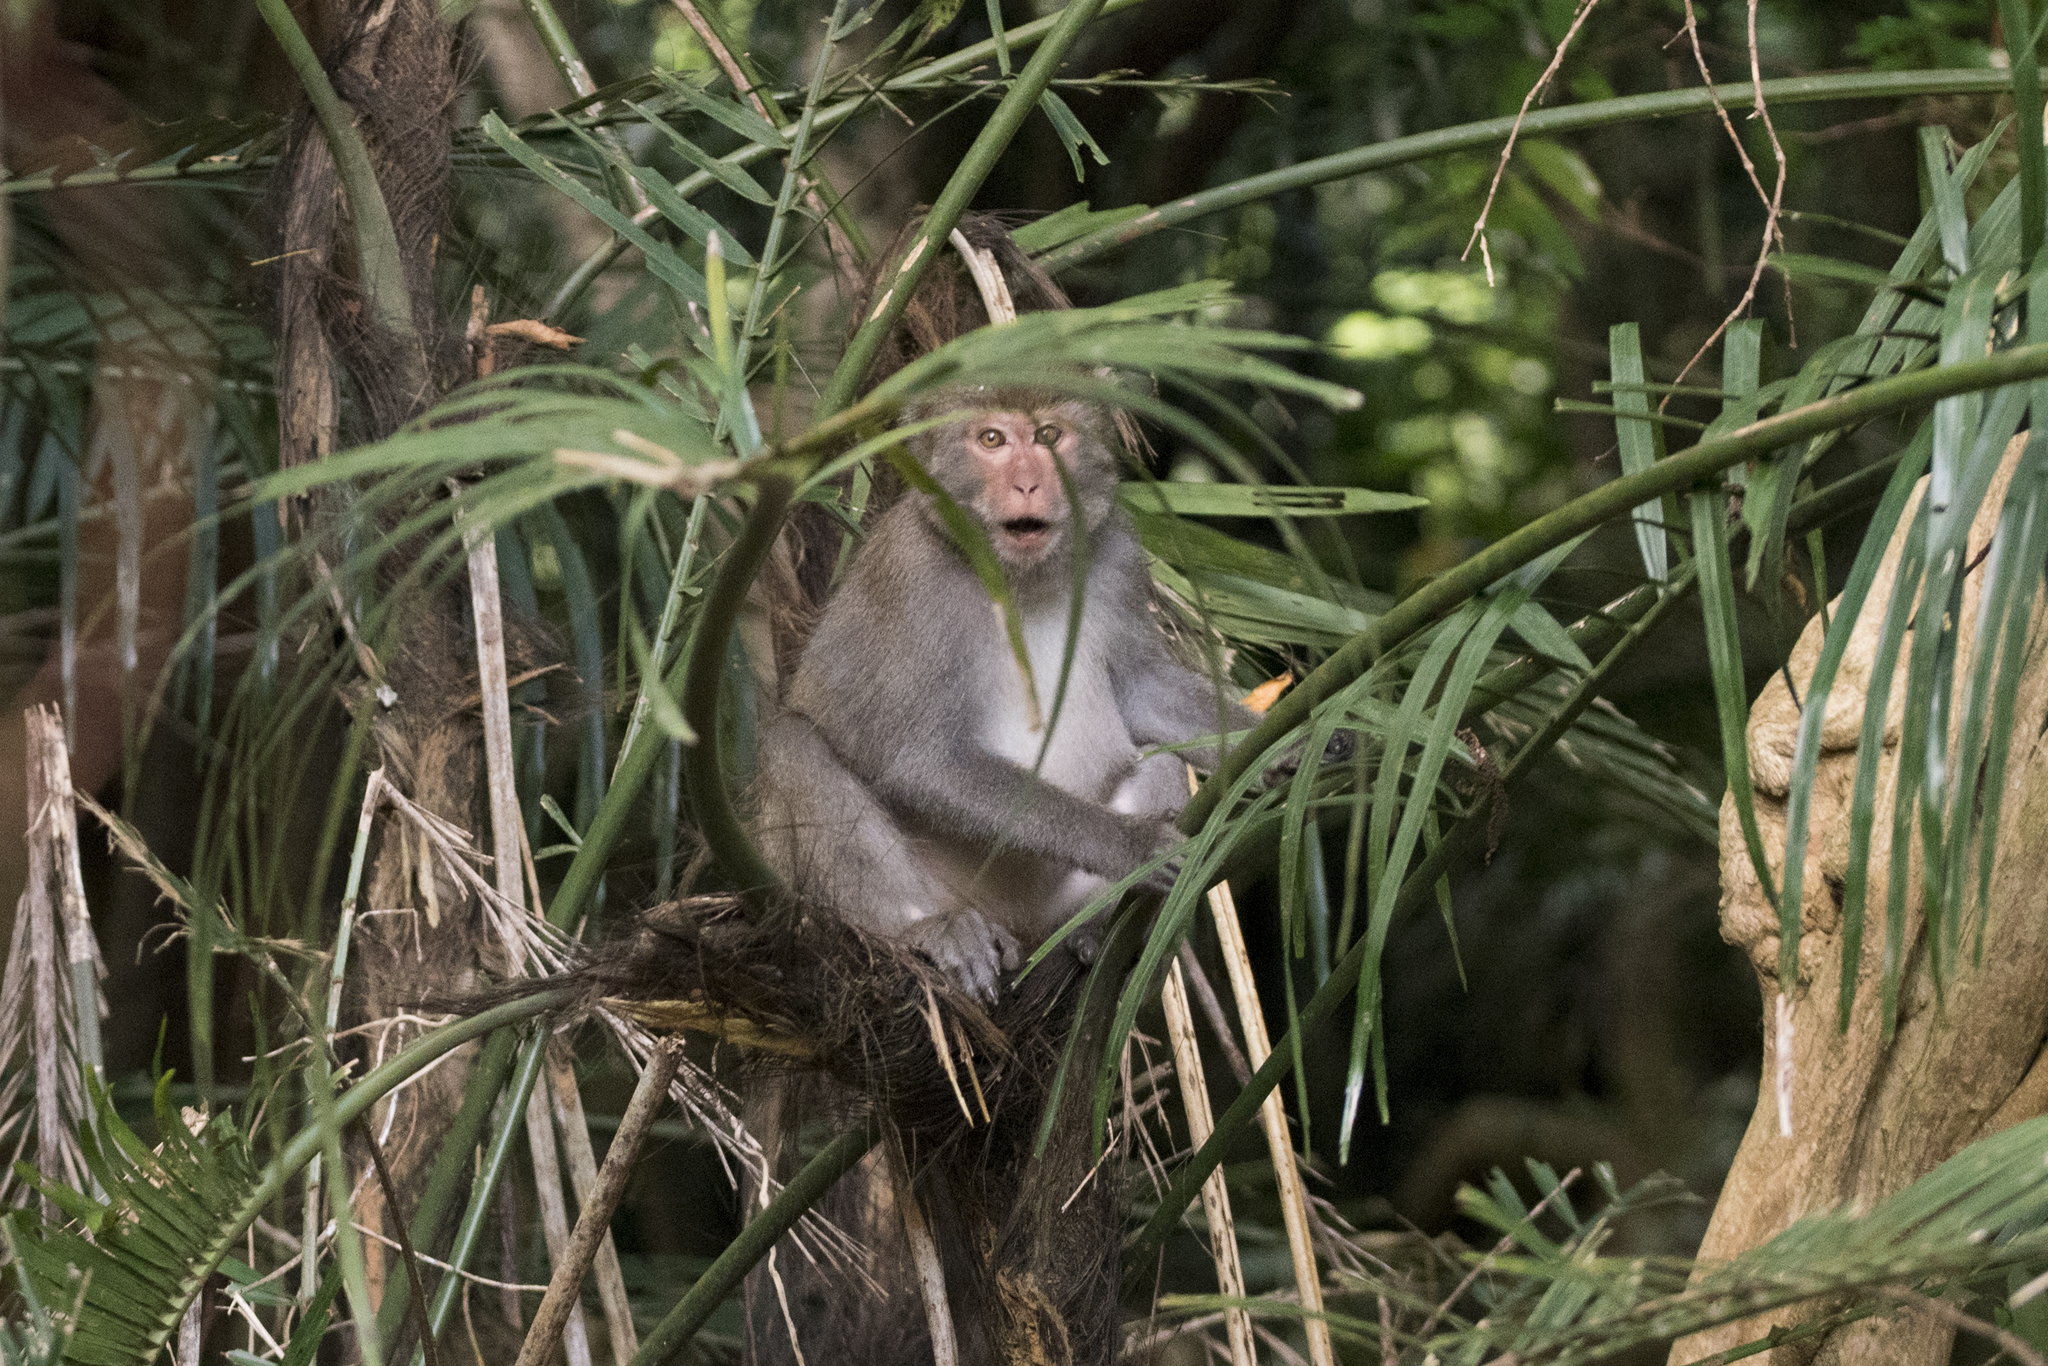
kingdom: Animalia
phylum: Chordata
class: Mammalia
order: Primates
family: Cercopithecidae
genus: Macaca
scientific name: Macaca cyclopis
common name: Formosan rock macaque
